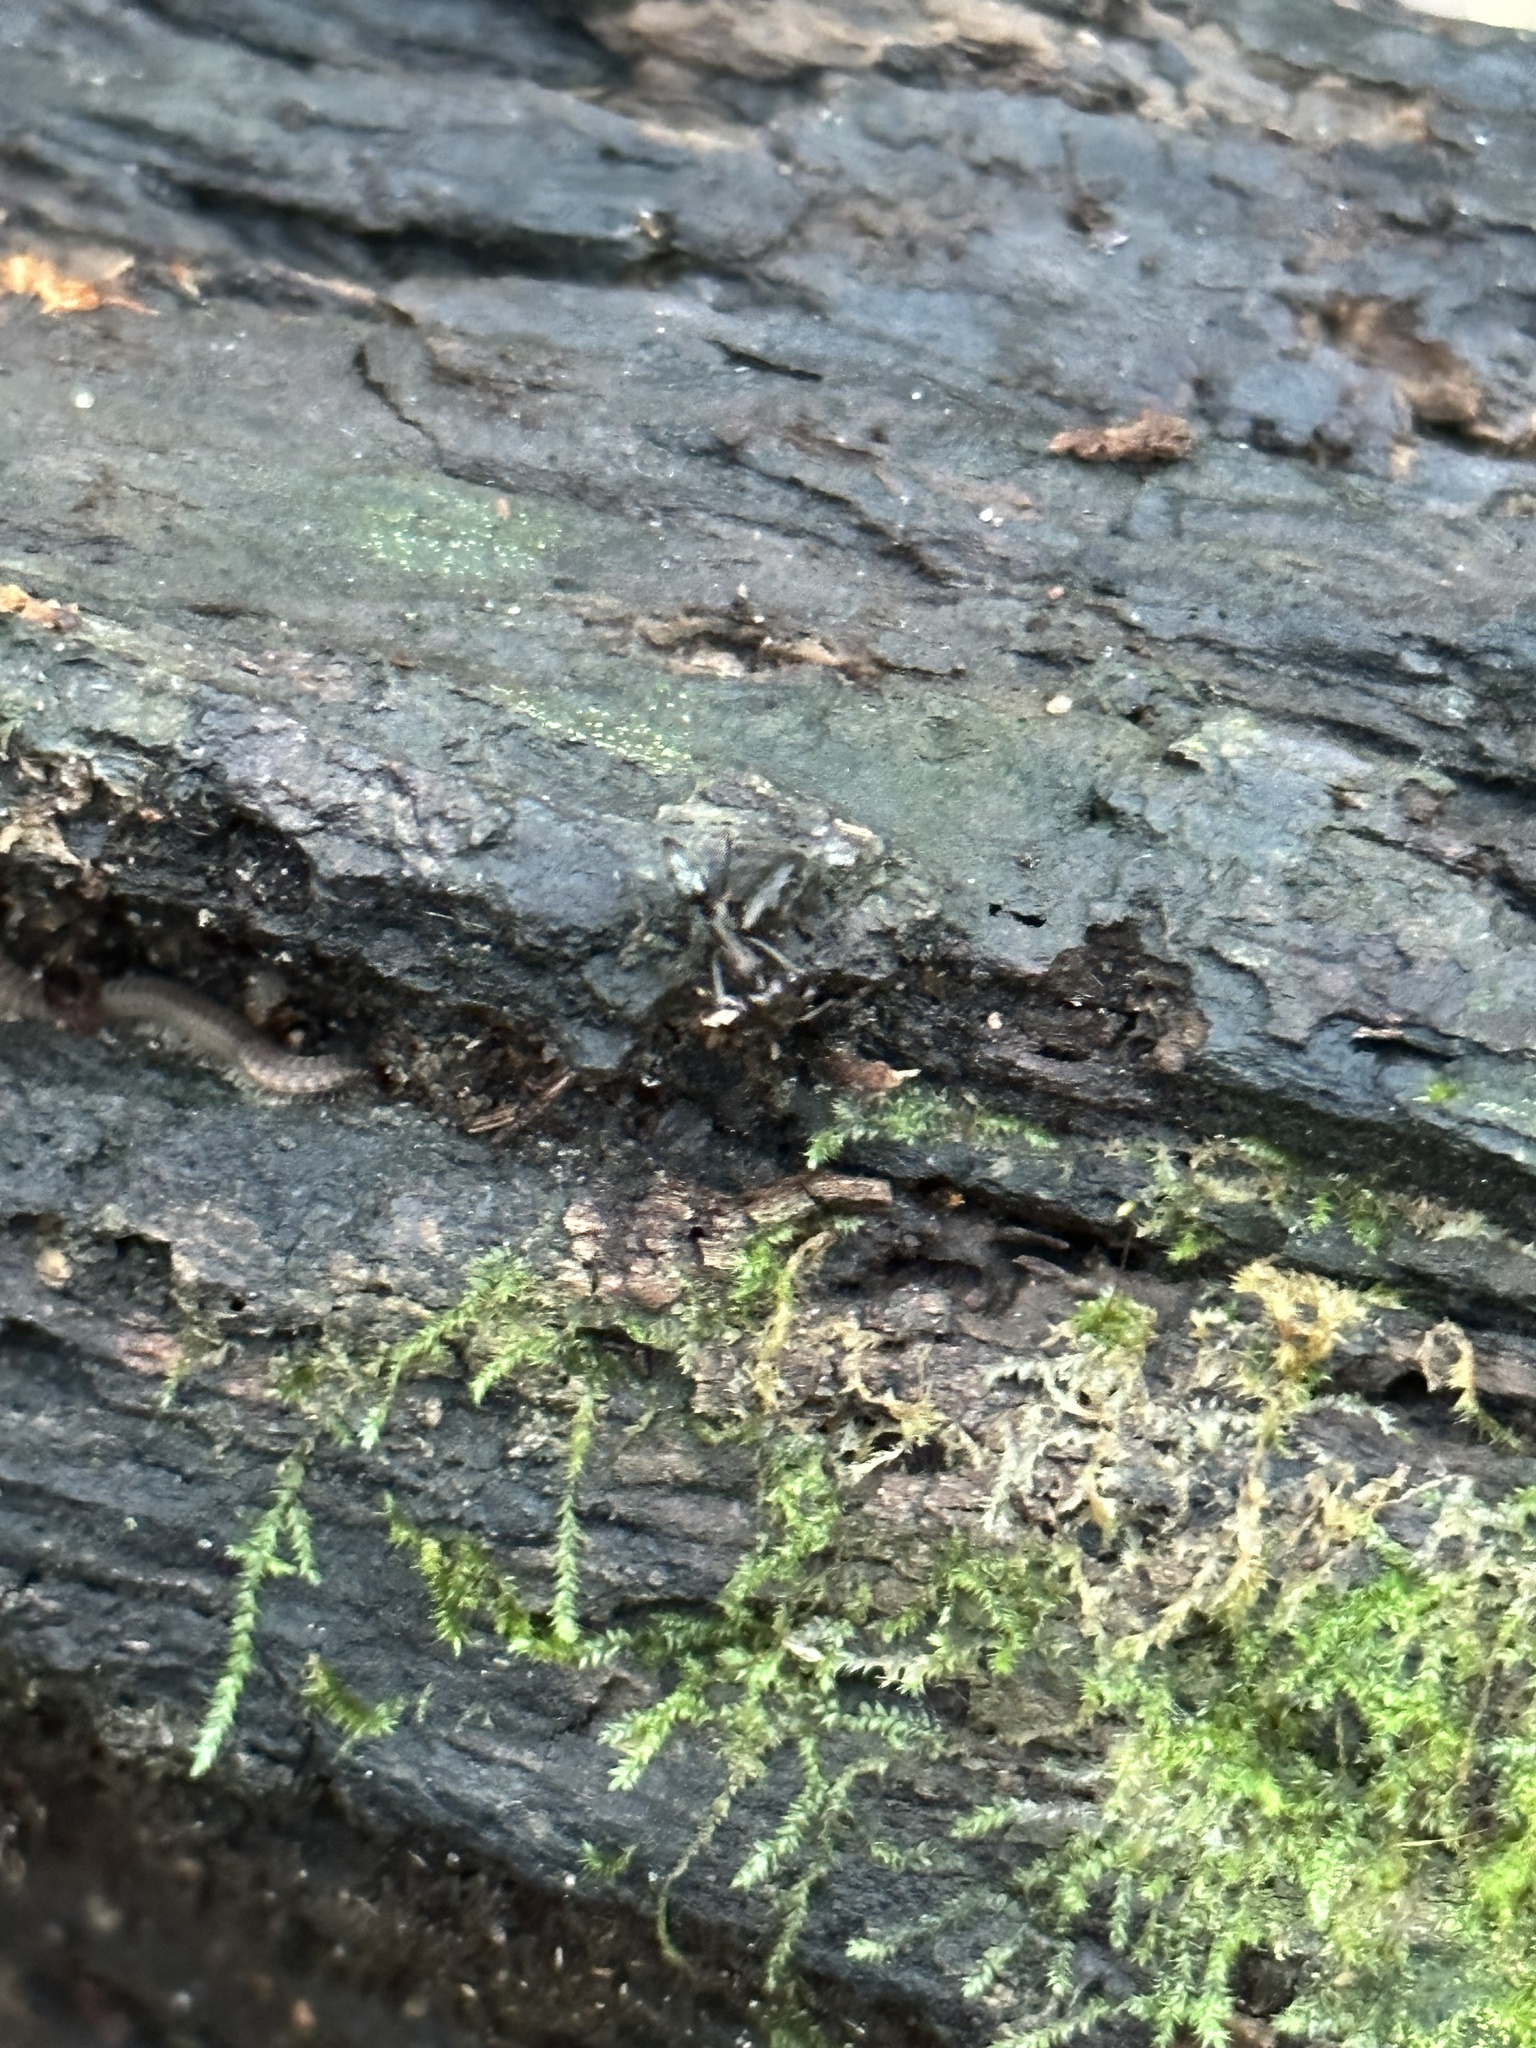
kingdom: Animalia
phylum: Arthropoda
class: Insecta
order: Hymenoptera
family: Formicidae
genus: Odontomachus
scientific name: Odontomachus brunneus
